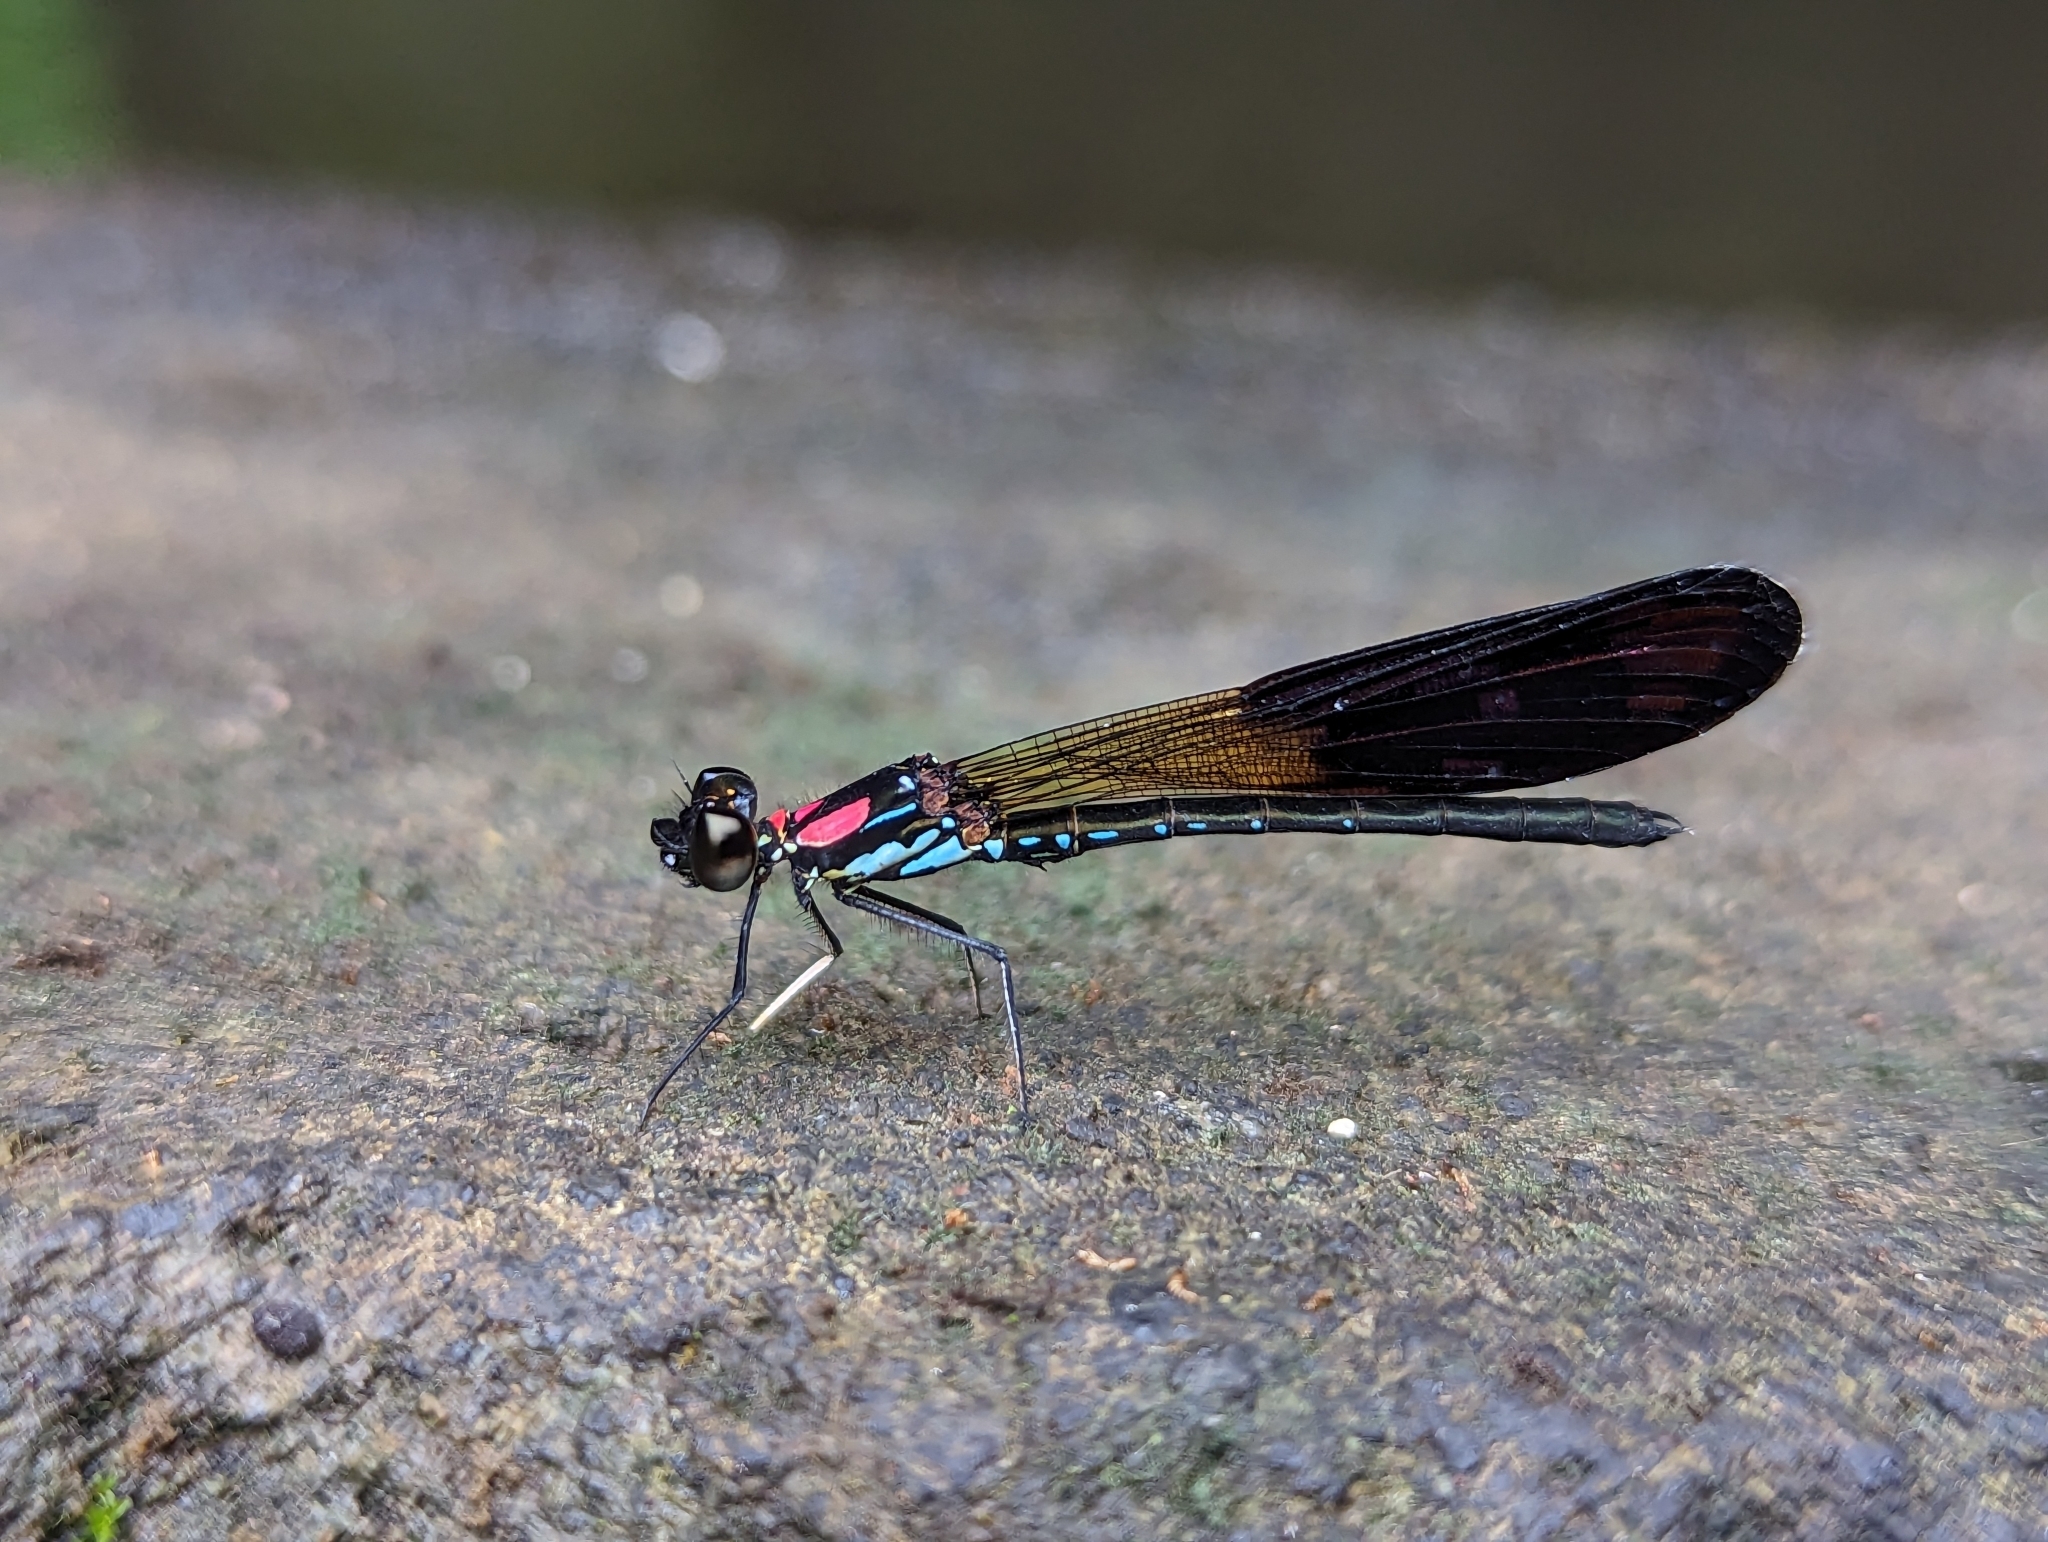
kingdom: Animalia
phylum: Arthropoda
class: Insecta
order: Odonata
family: Chlorocyphidae
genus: Heliocypha
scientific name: Heliocypha fenestrata
